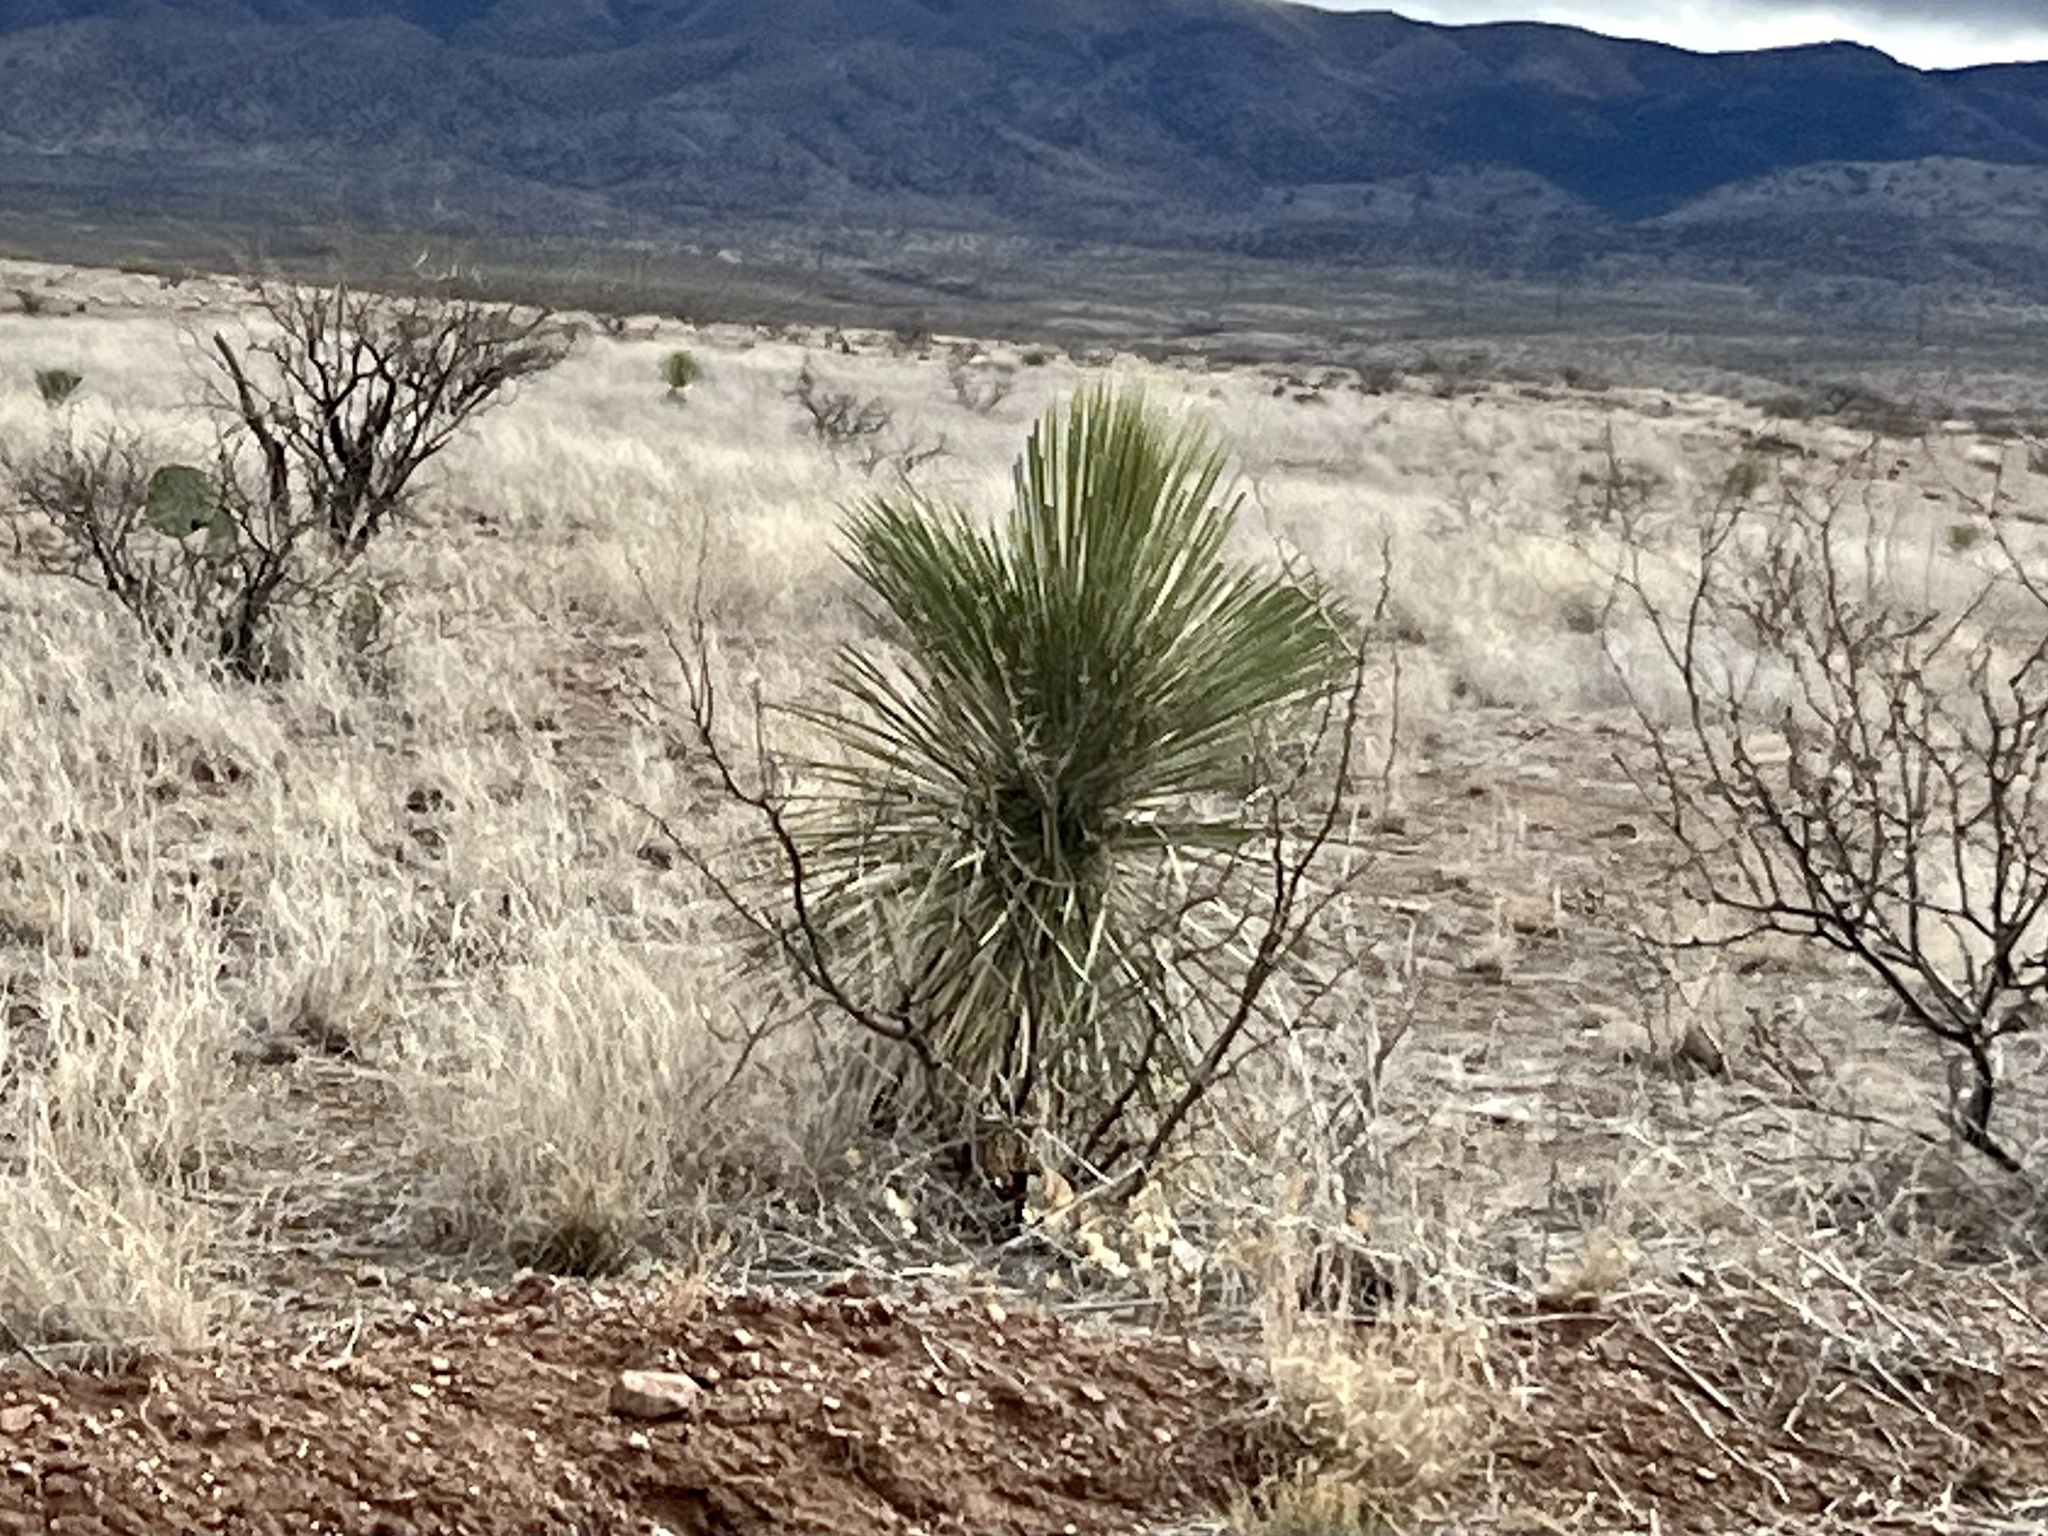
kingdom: Plantae
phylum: Tracheophyta
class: Liliopsida
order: Asparagales
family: Asparagaceae
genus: Yucca
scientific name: Yucca elata
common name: Palmella
